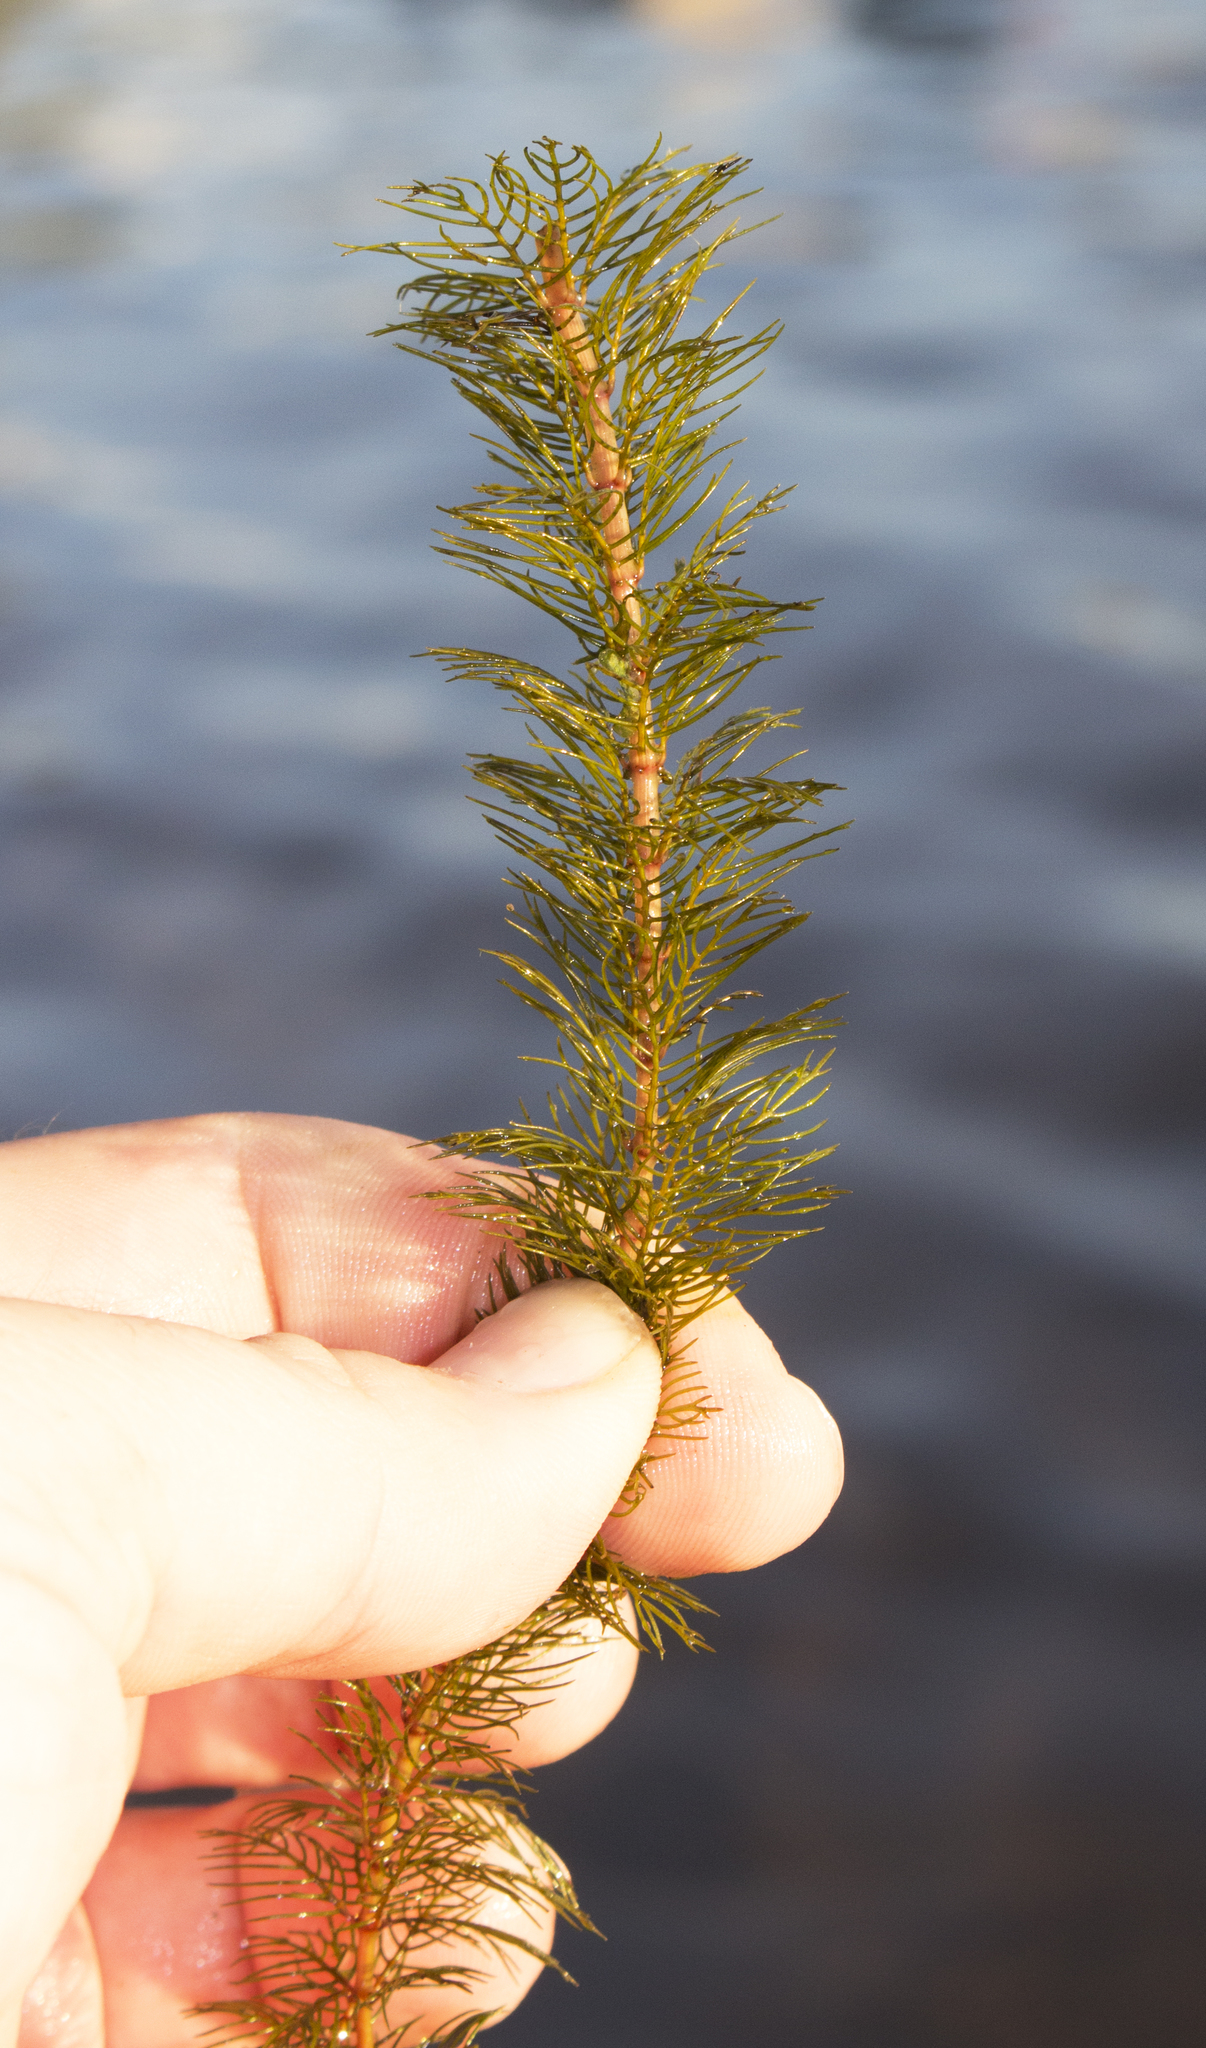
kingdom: Plantae
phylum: Tracheophyta
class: Magnoliopsida
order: Saxifragales
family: Haloragaceae
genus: Myriophyllum
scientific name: Myriophyllum sibiricum
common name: Siberian water-milfoil
